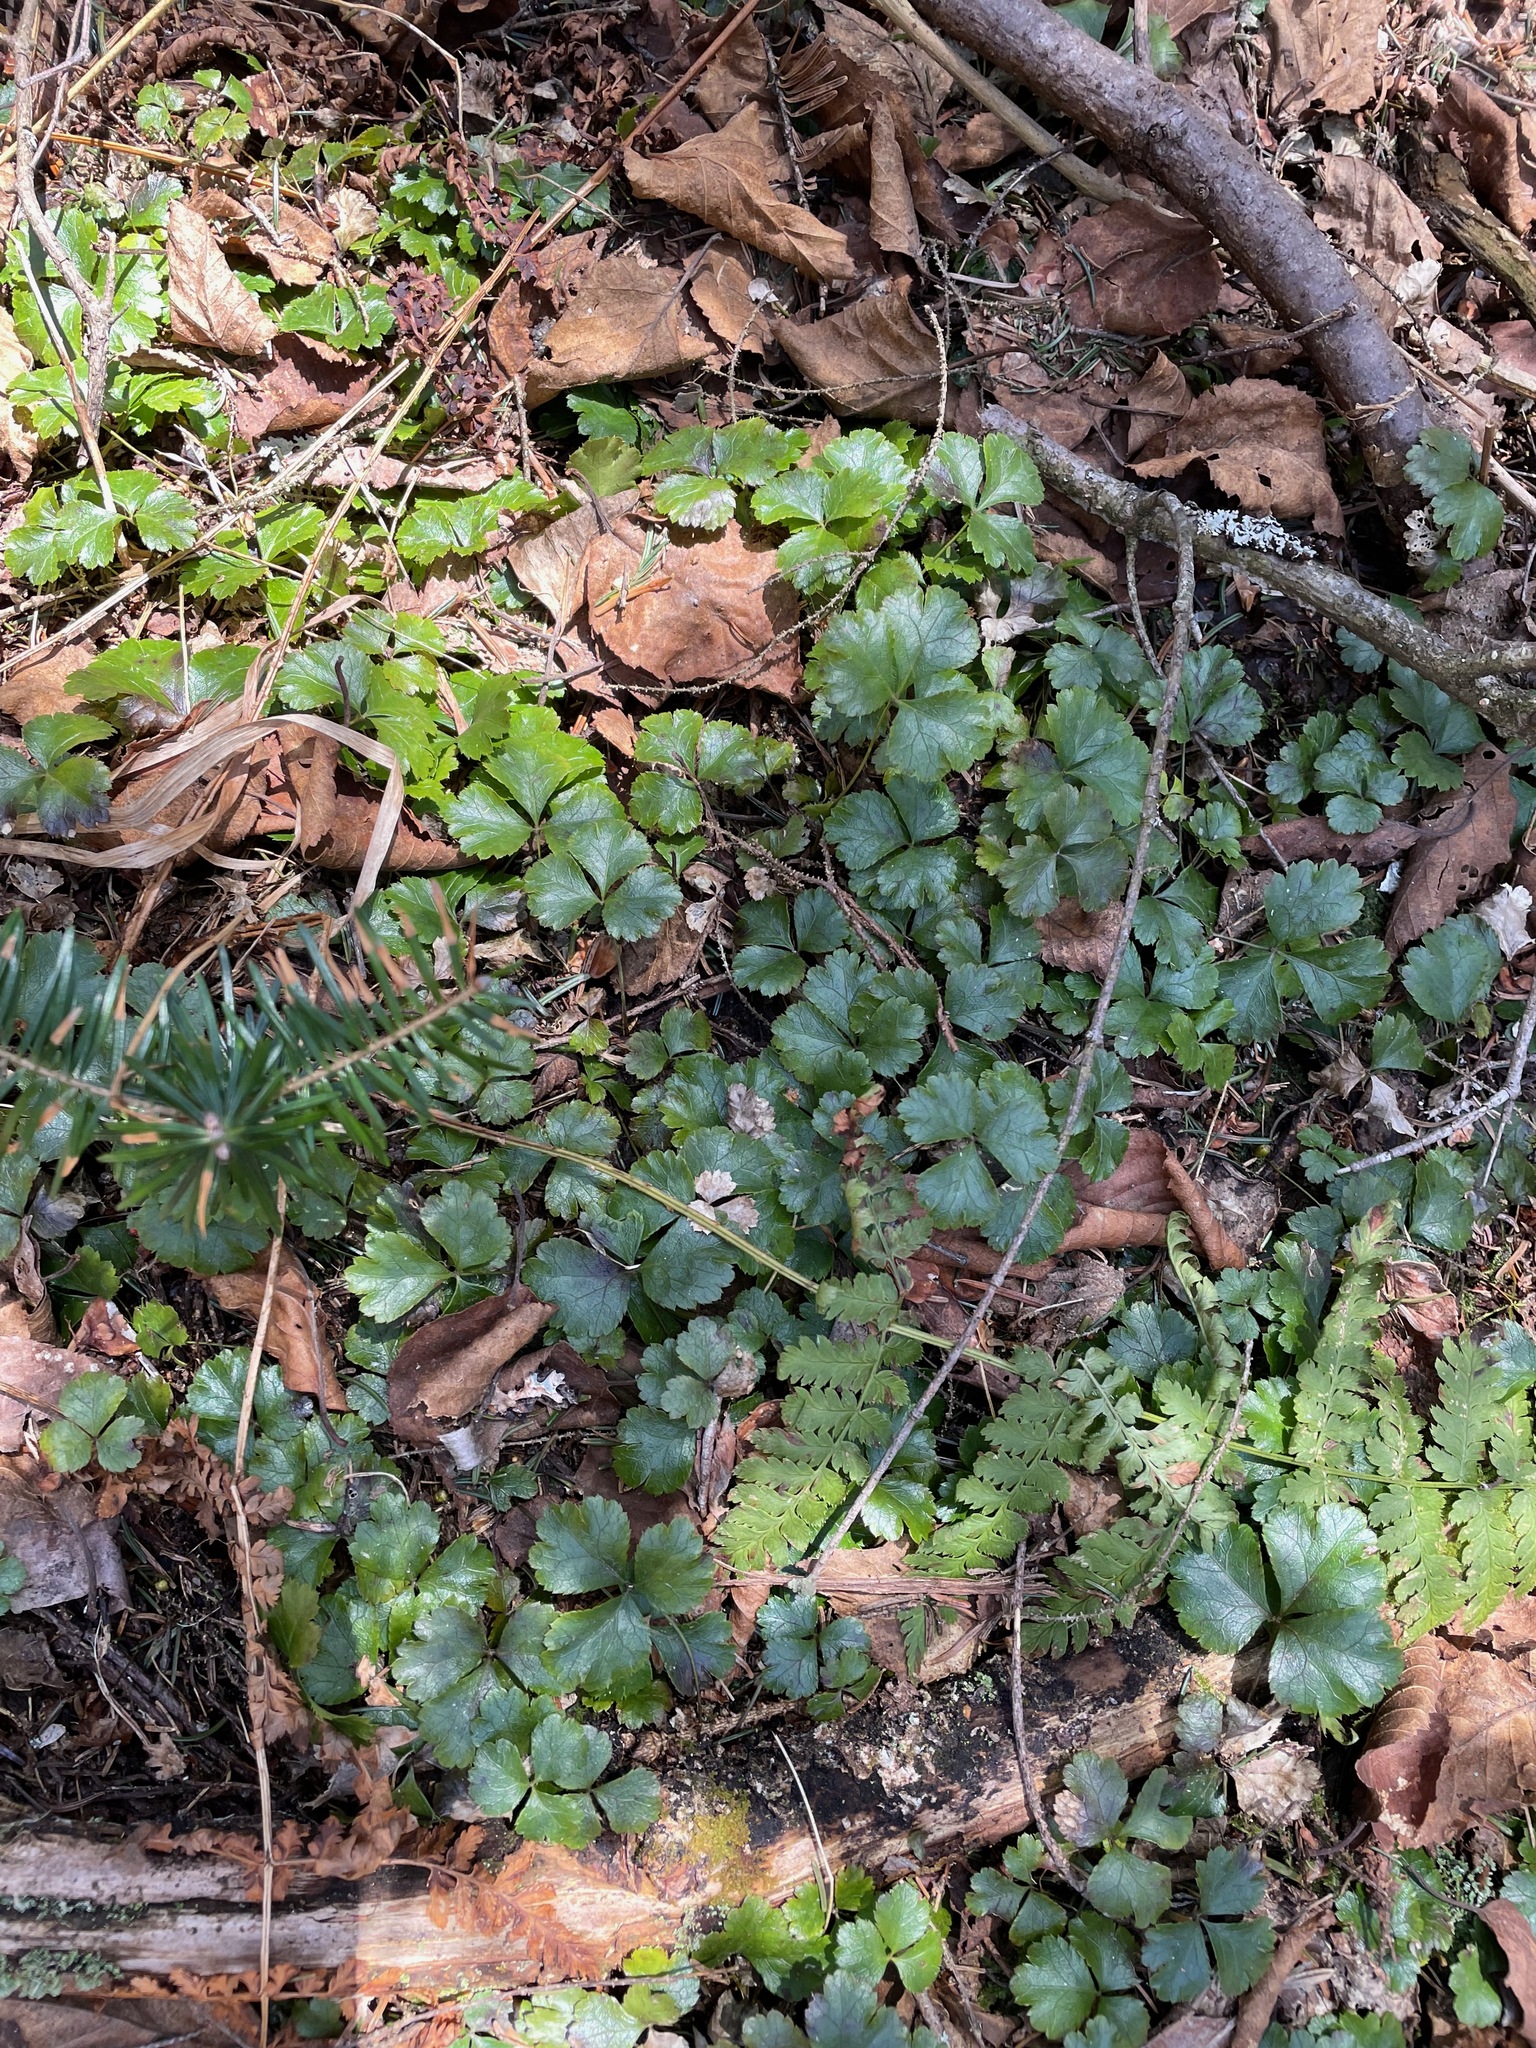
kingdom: Plantae
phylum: Tracheophyta
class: Magnoliopsida
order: Ranunculales
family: Ranunculaceae
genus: Coptis
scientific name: Coptis trifolia
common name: Canker-root
